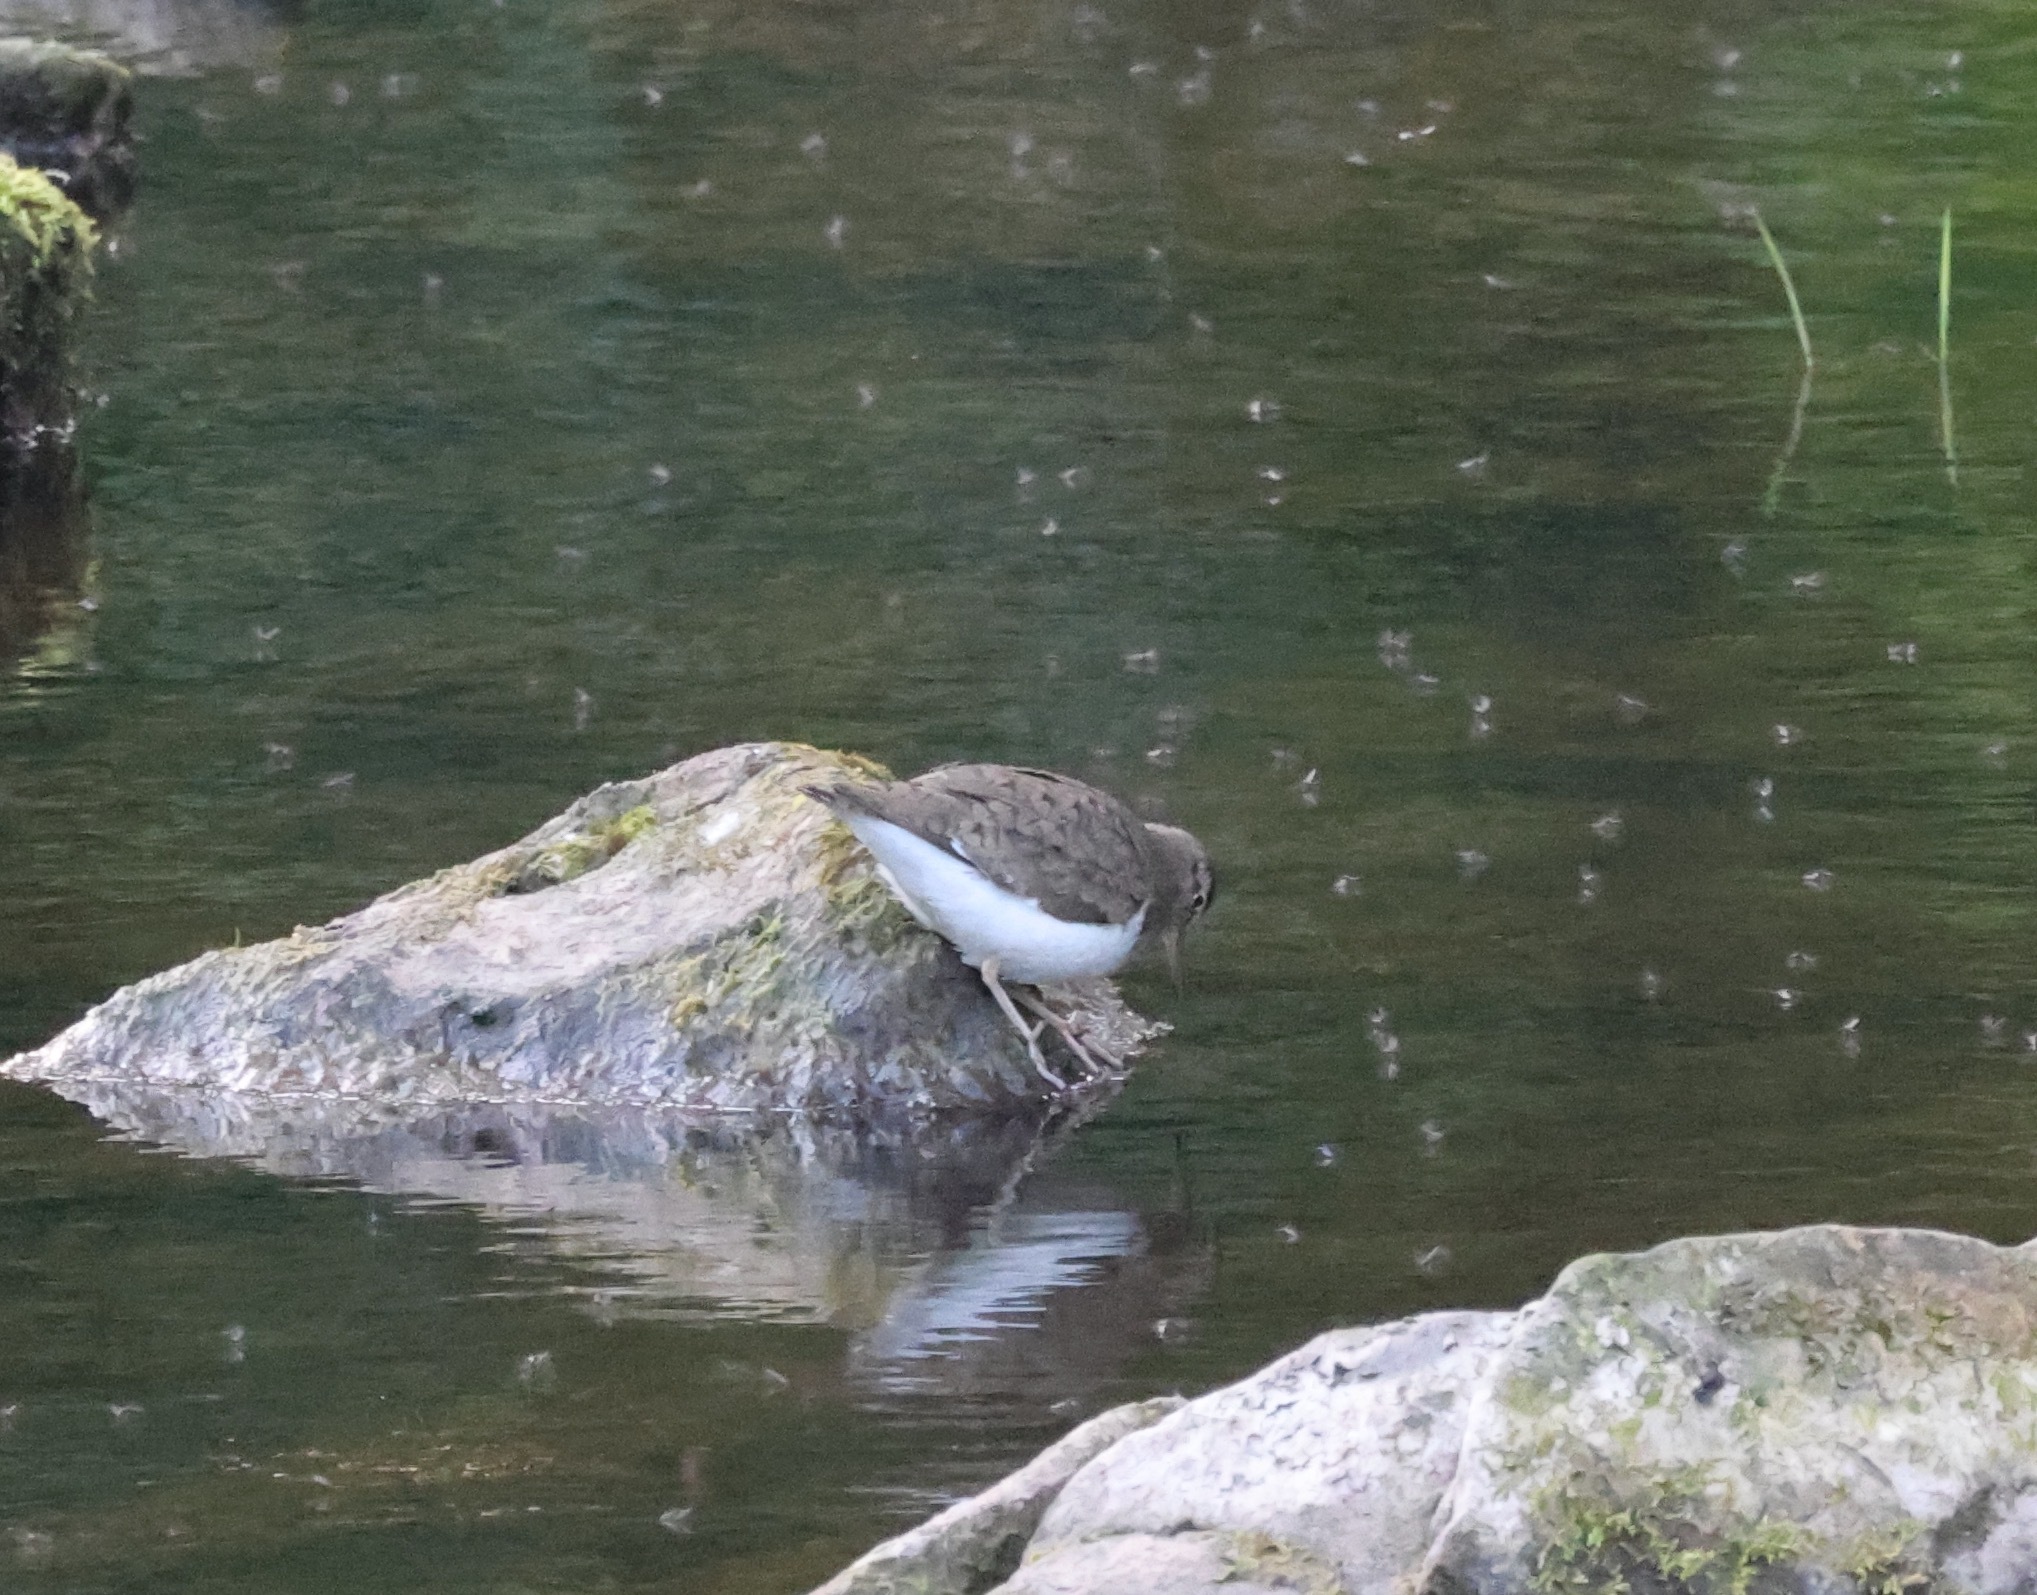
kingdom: Animalia
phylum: Chordata
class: Aves
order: Charadriiformes
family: Scolopacidae
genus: Actitis
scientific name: Actitis hypoleucos
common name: Common sandpiper
